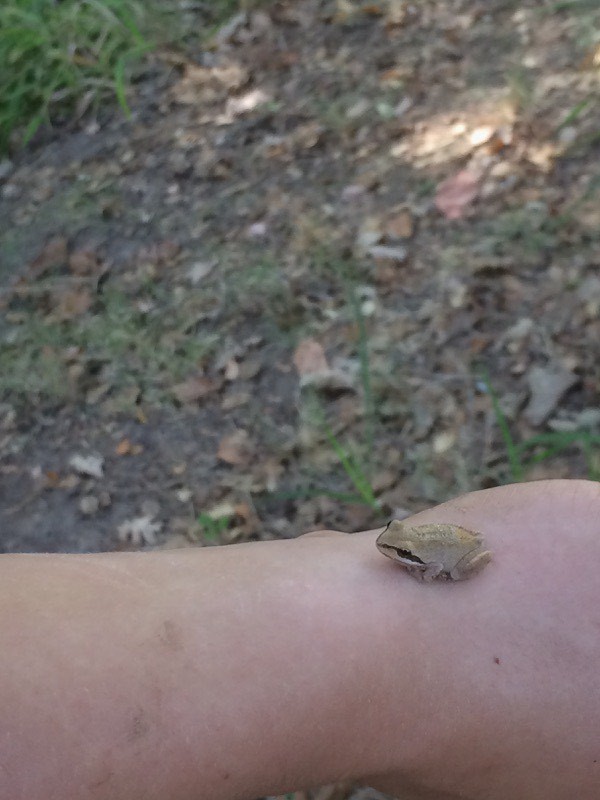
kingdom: Animalia
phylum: Chordata
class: Amphibia
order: Anura
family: Hylidae
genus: Pseudacris
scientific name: Pseudacris regilla
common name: Pacific chorus frog
